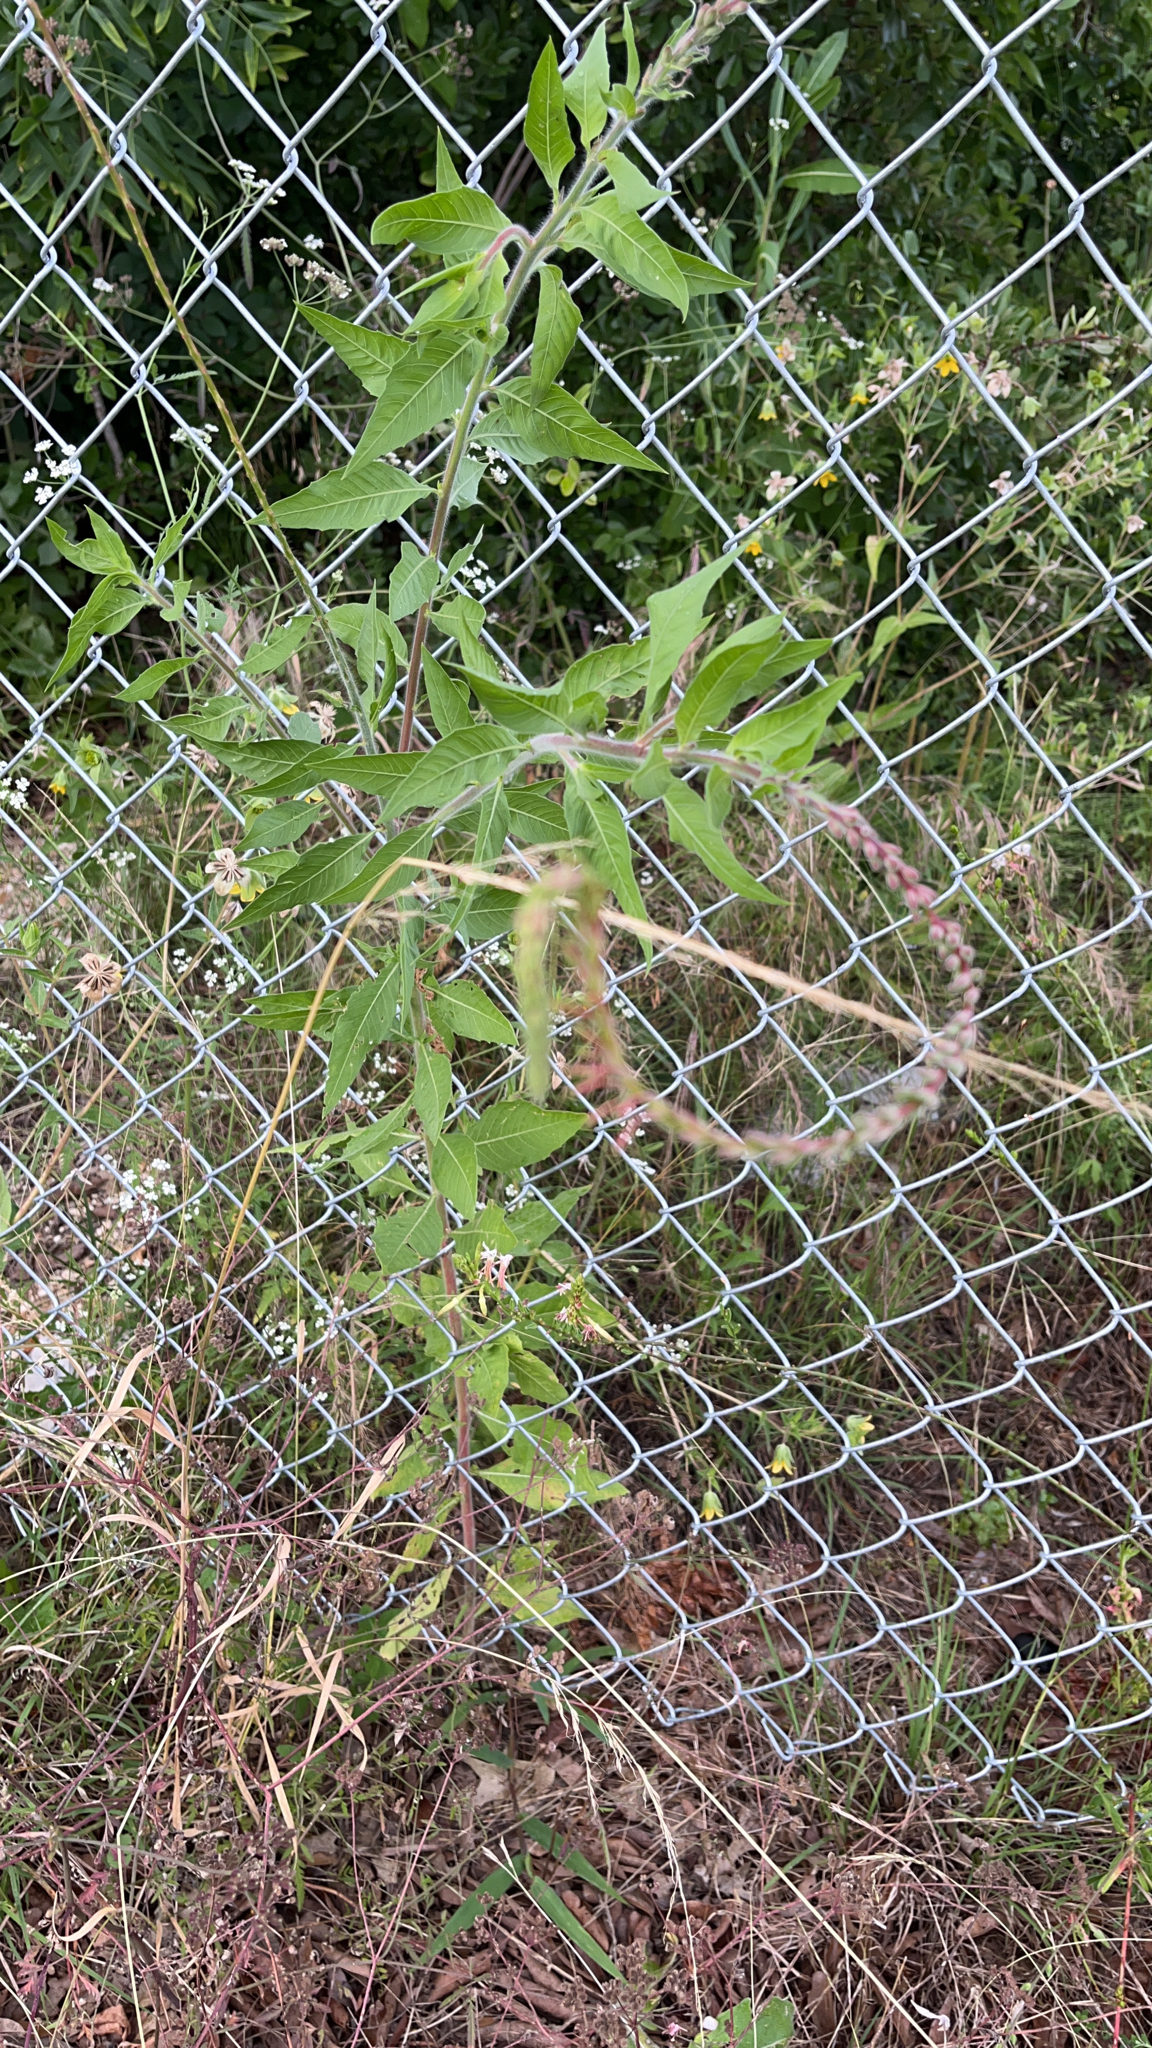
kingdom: Plantae
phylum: Tracheophyta
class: Magnoliopsida
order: Myrtales
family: Onagraceae
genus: Oenothera
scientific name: Oenothera curtiflora
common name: Velvetweed
